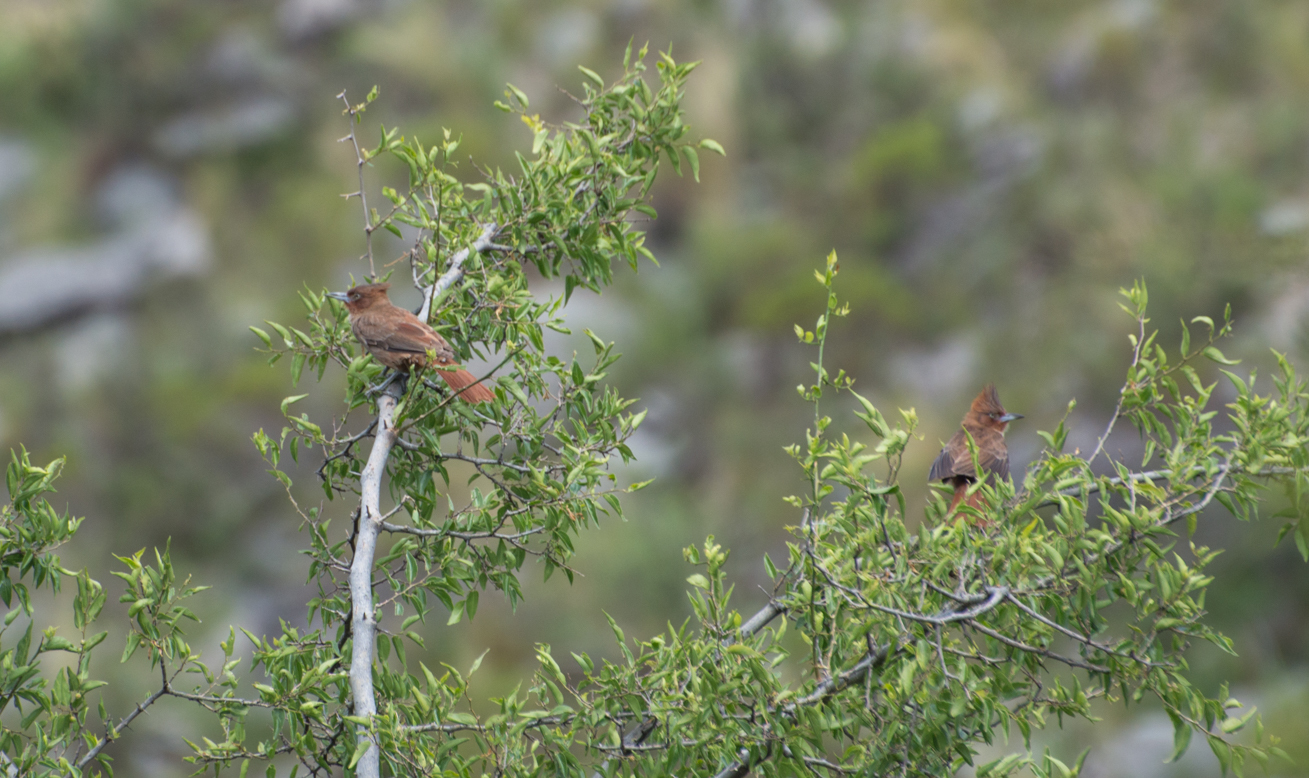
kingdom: Animalia
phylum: Chordata
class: Aves
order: Passeriformes
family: Furnariidae
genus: Pseudoseisura
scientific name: Pseudoseisura lophotes
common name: Brown cacholote
